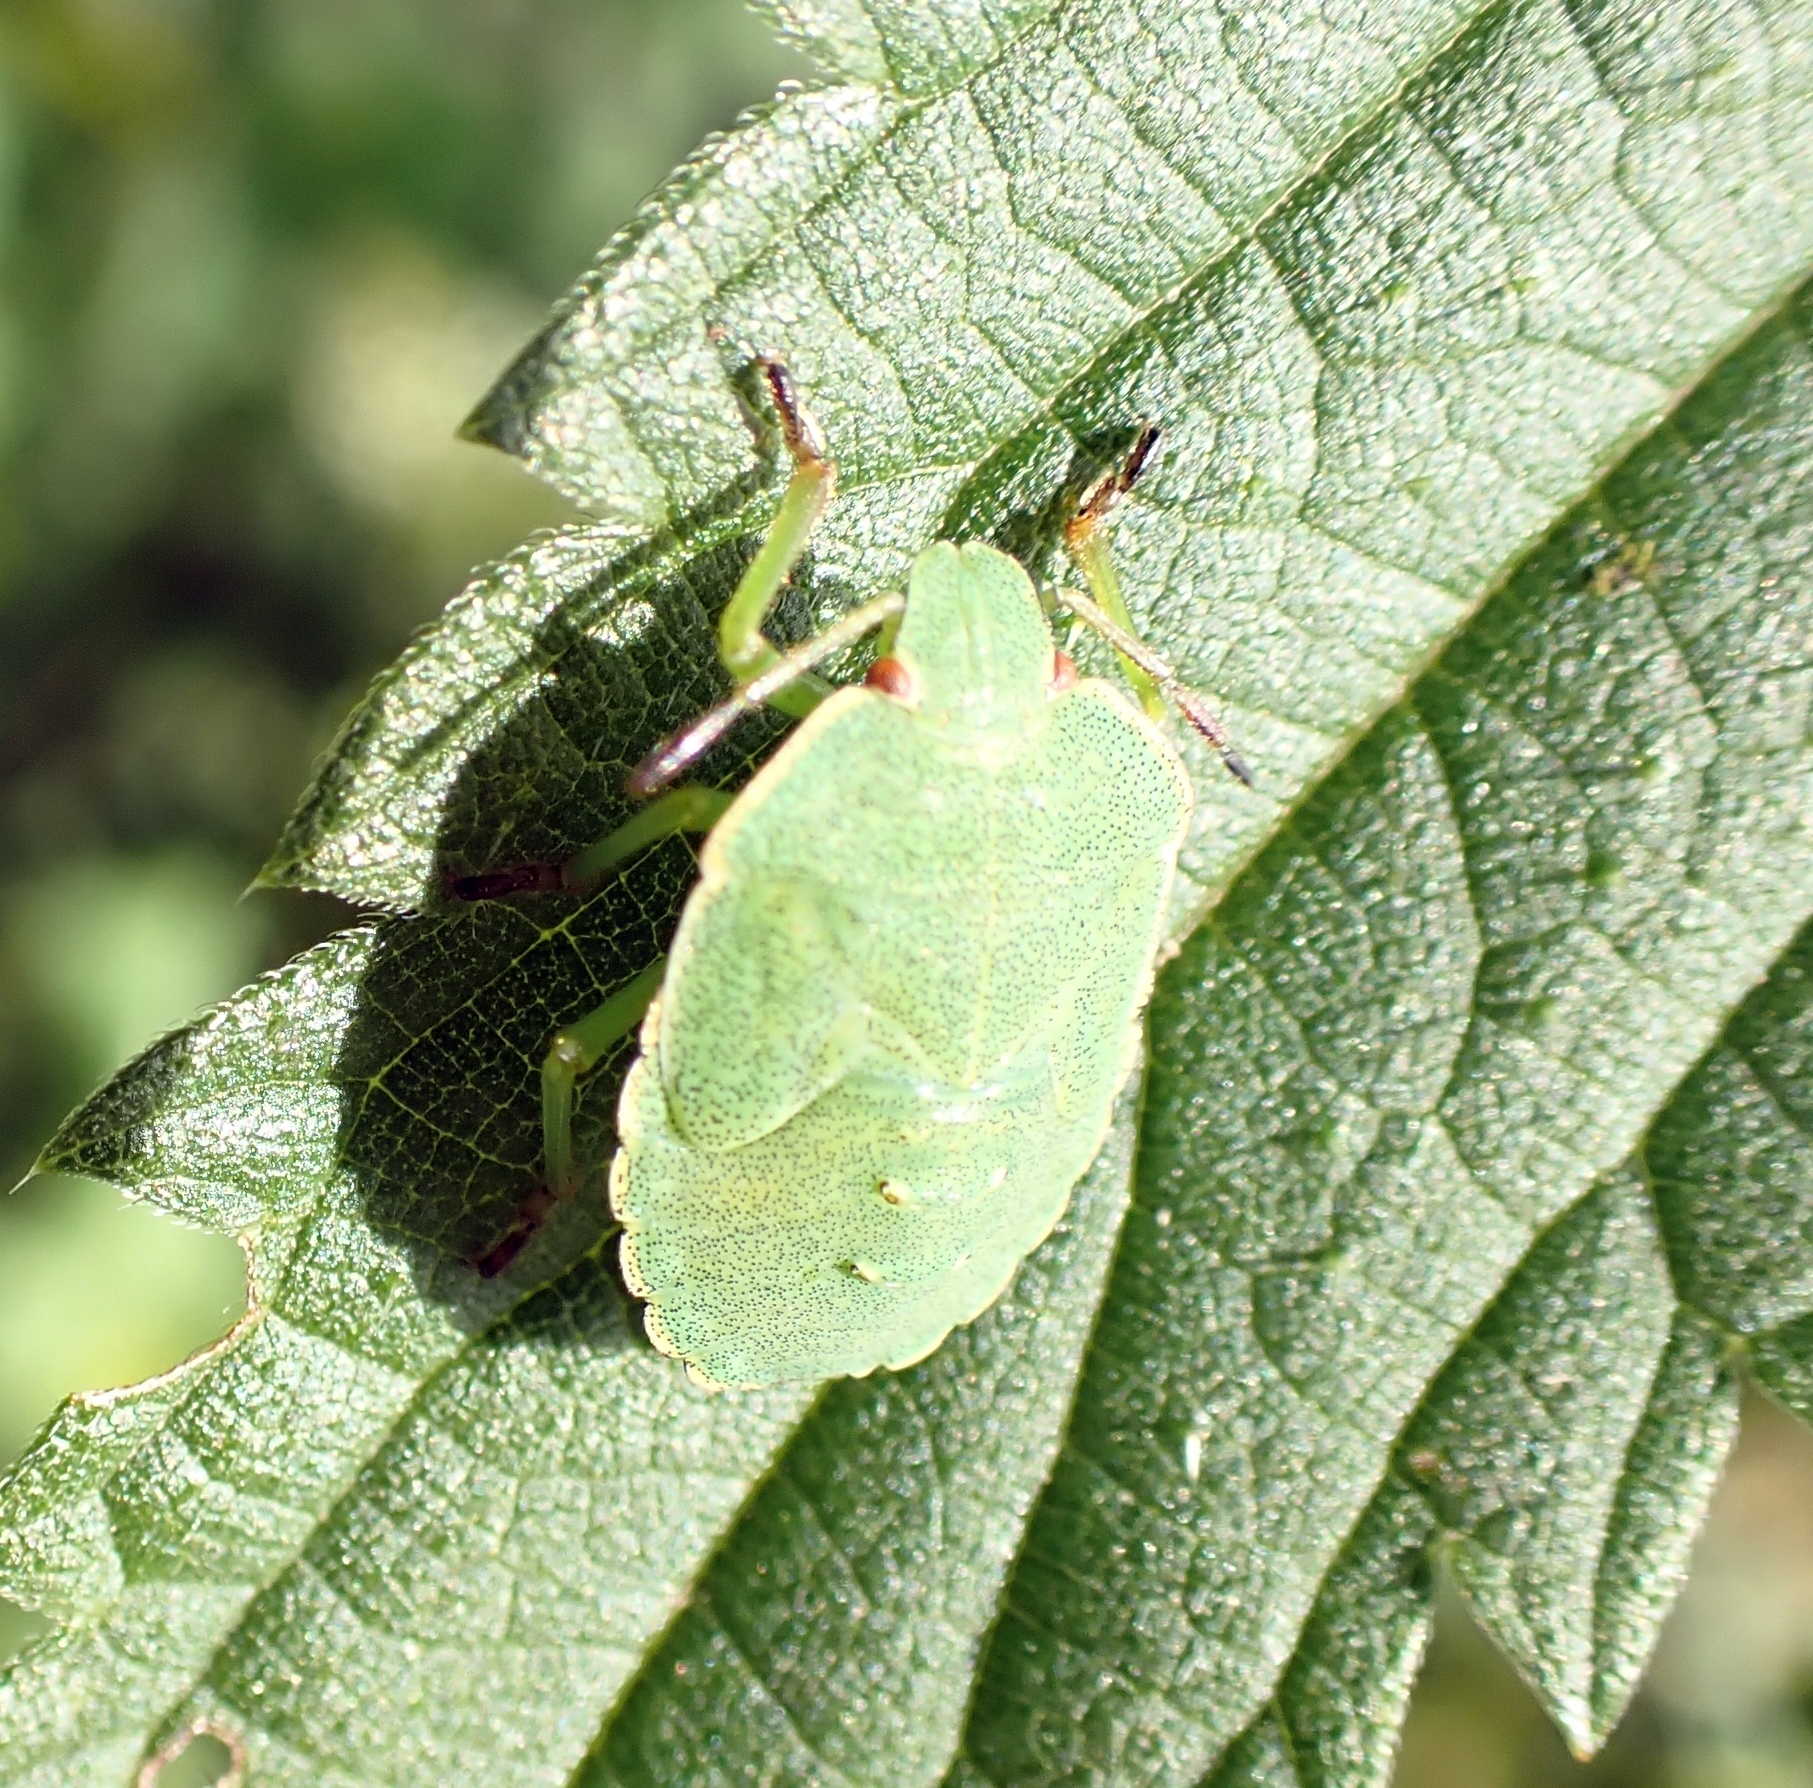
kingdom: Animalia
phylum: Arthropoda
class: Insecta
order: Hemiptera
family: Pentatomidae
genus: Palomena
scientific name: Palomena prasina
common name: Green shieldbug
